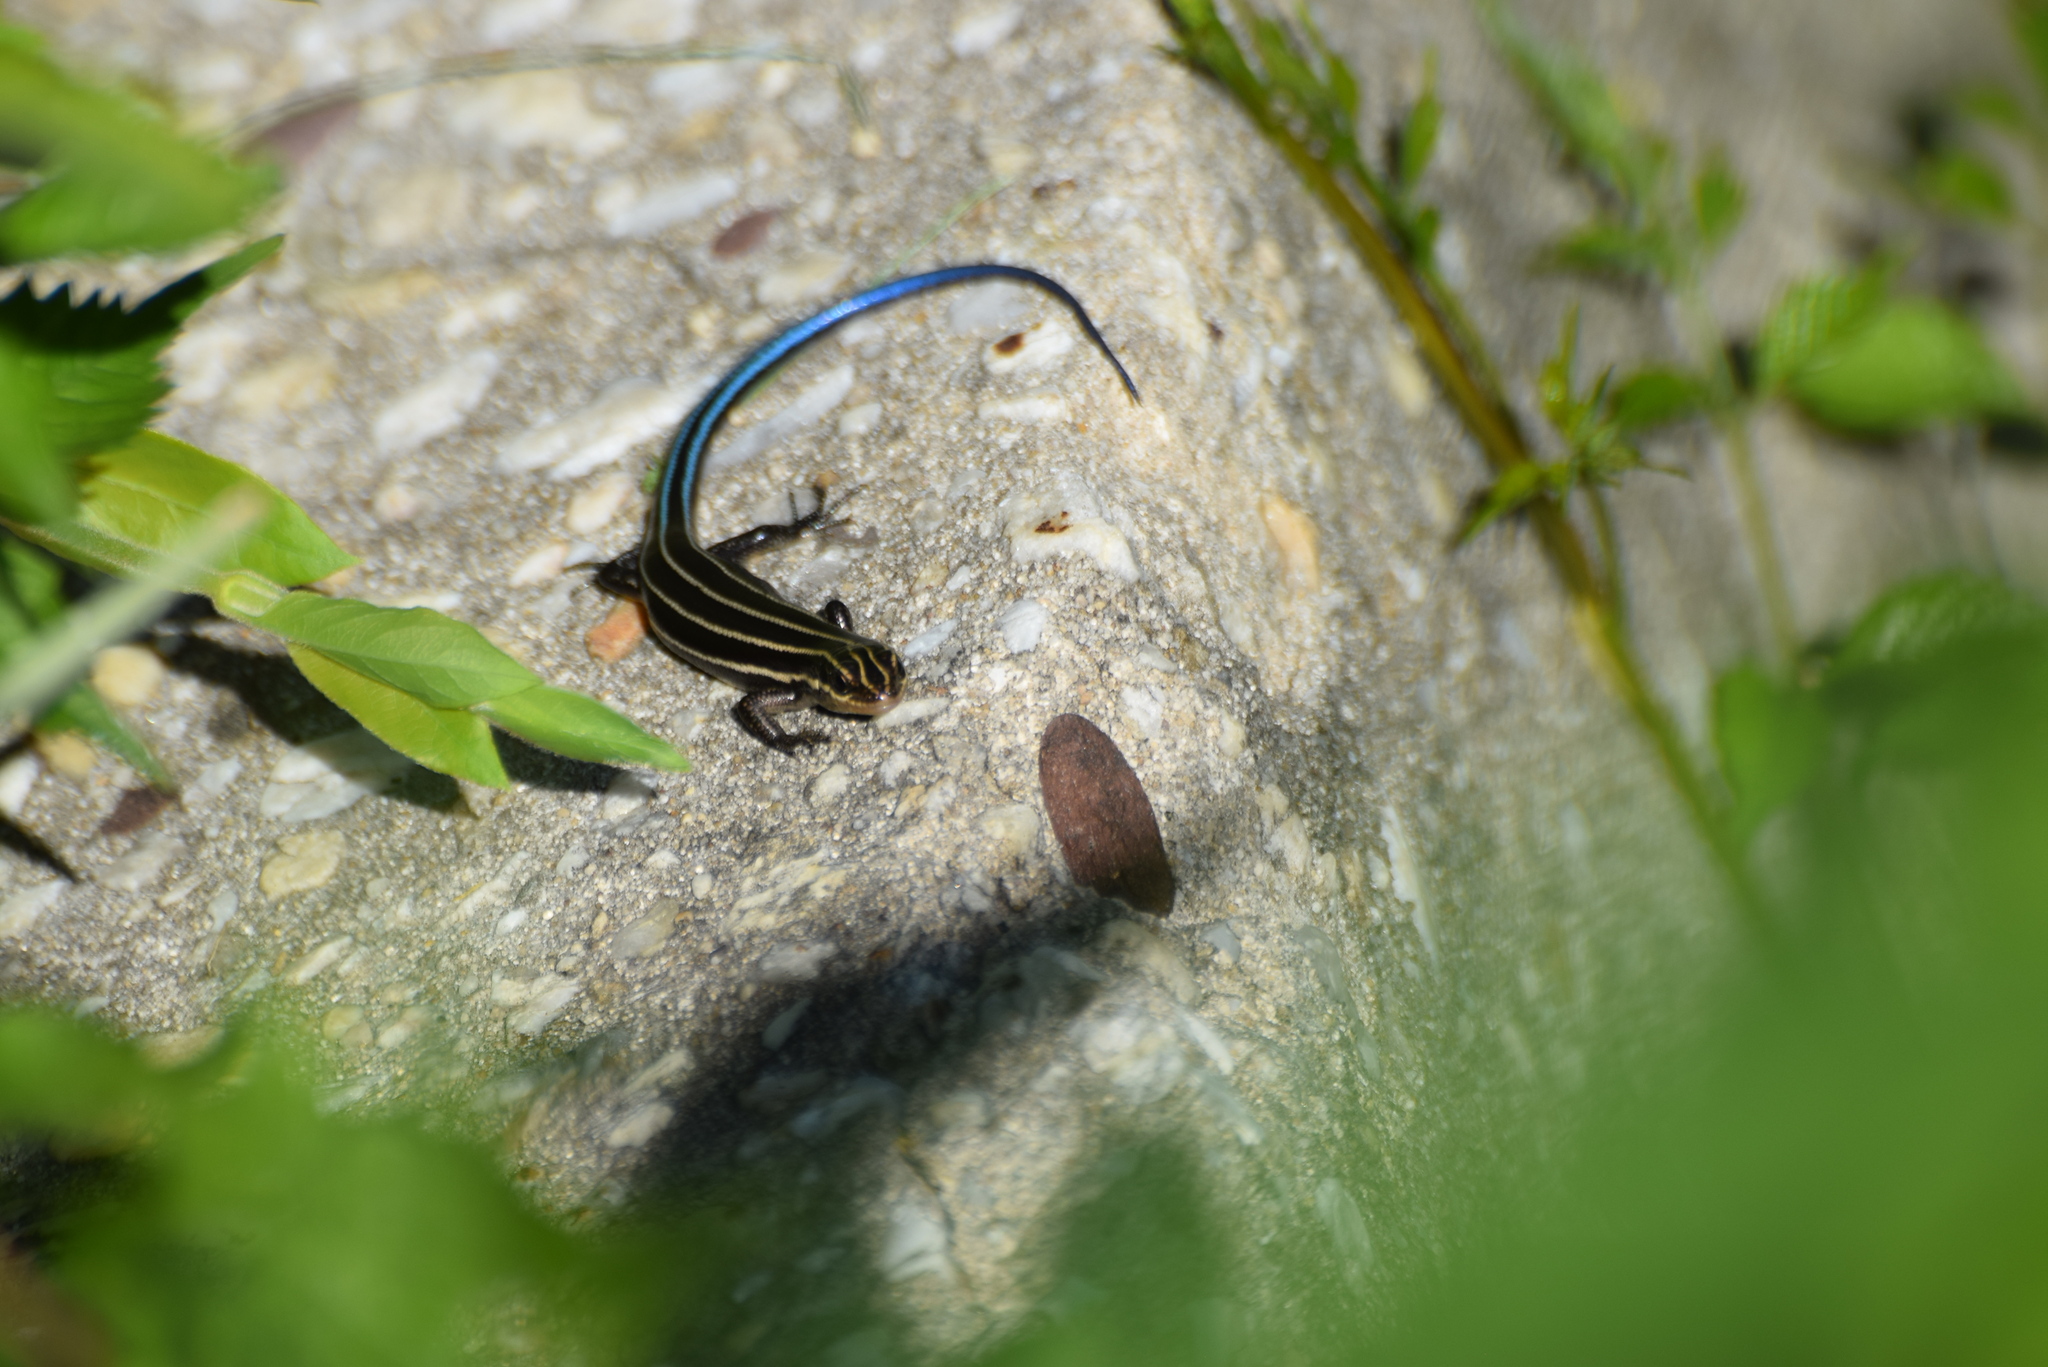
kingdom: Animalia
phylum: Chordata
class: Squamata
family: Scincidae
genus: Plestiodon
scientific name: Plestiodon fasciatus
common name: Five-lined skink
